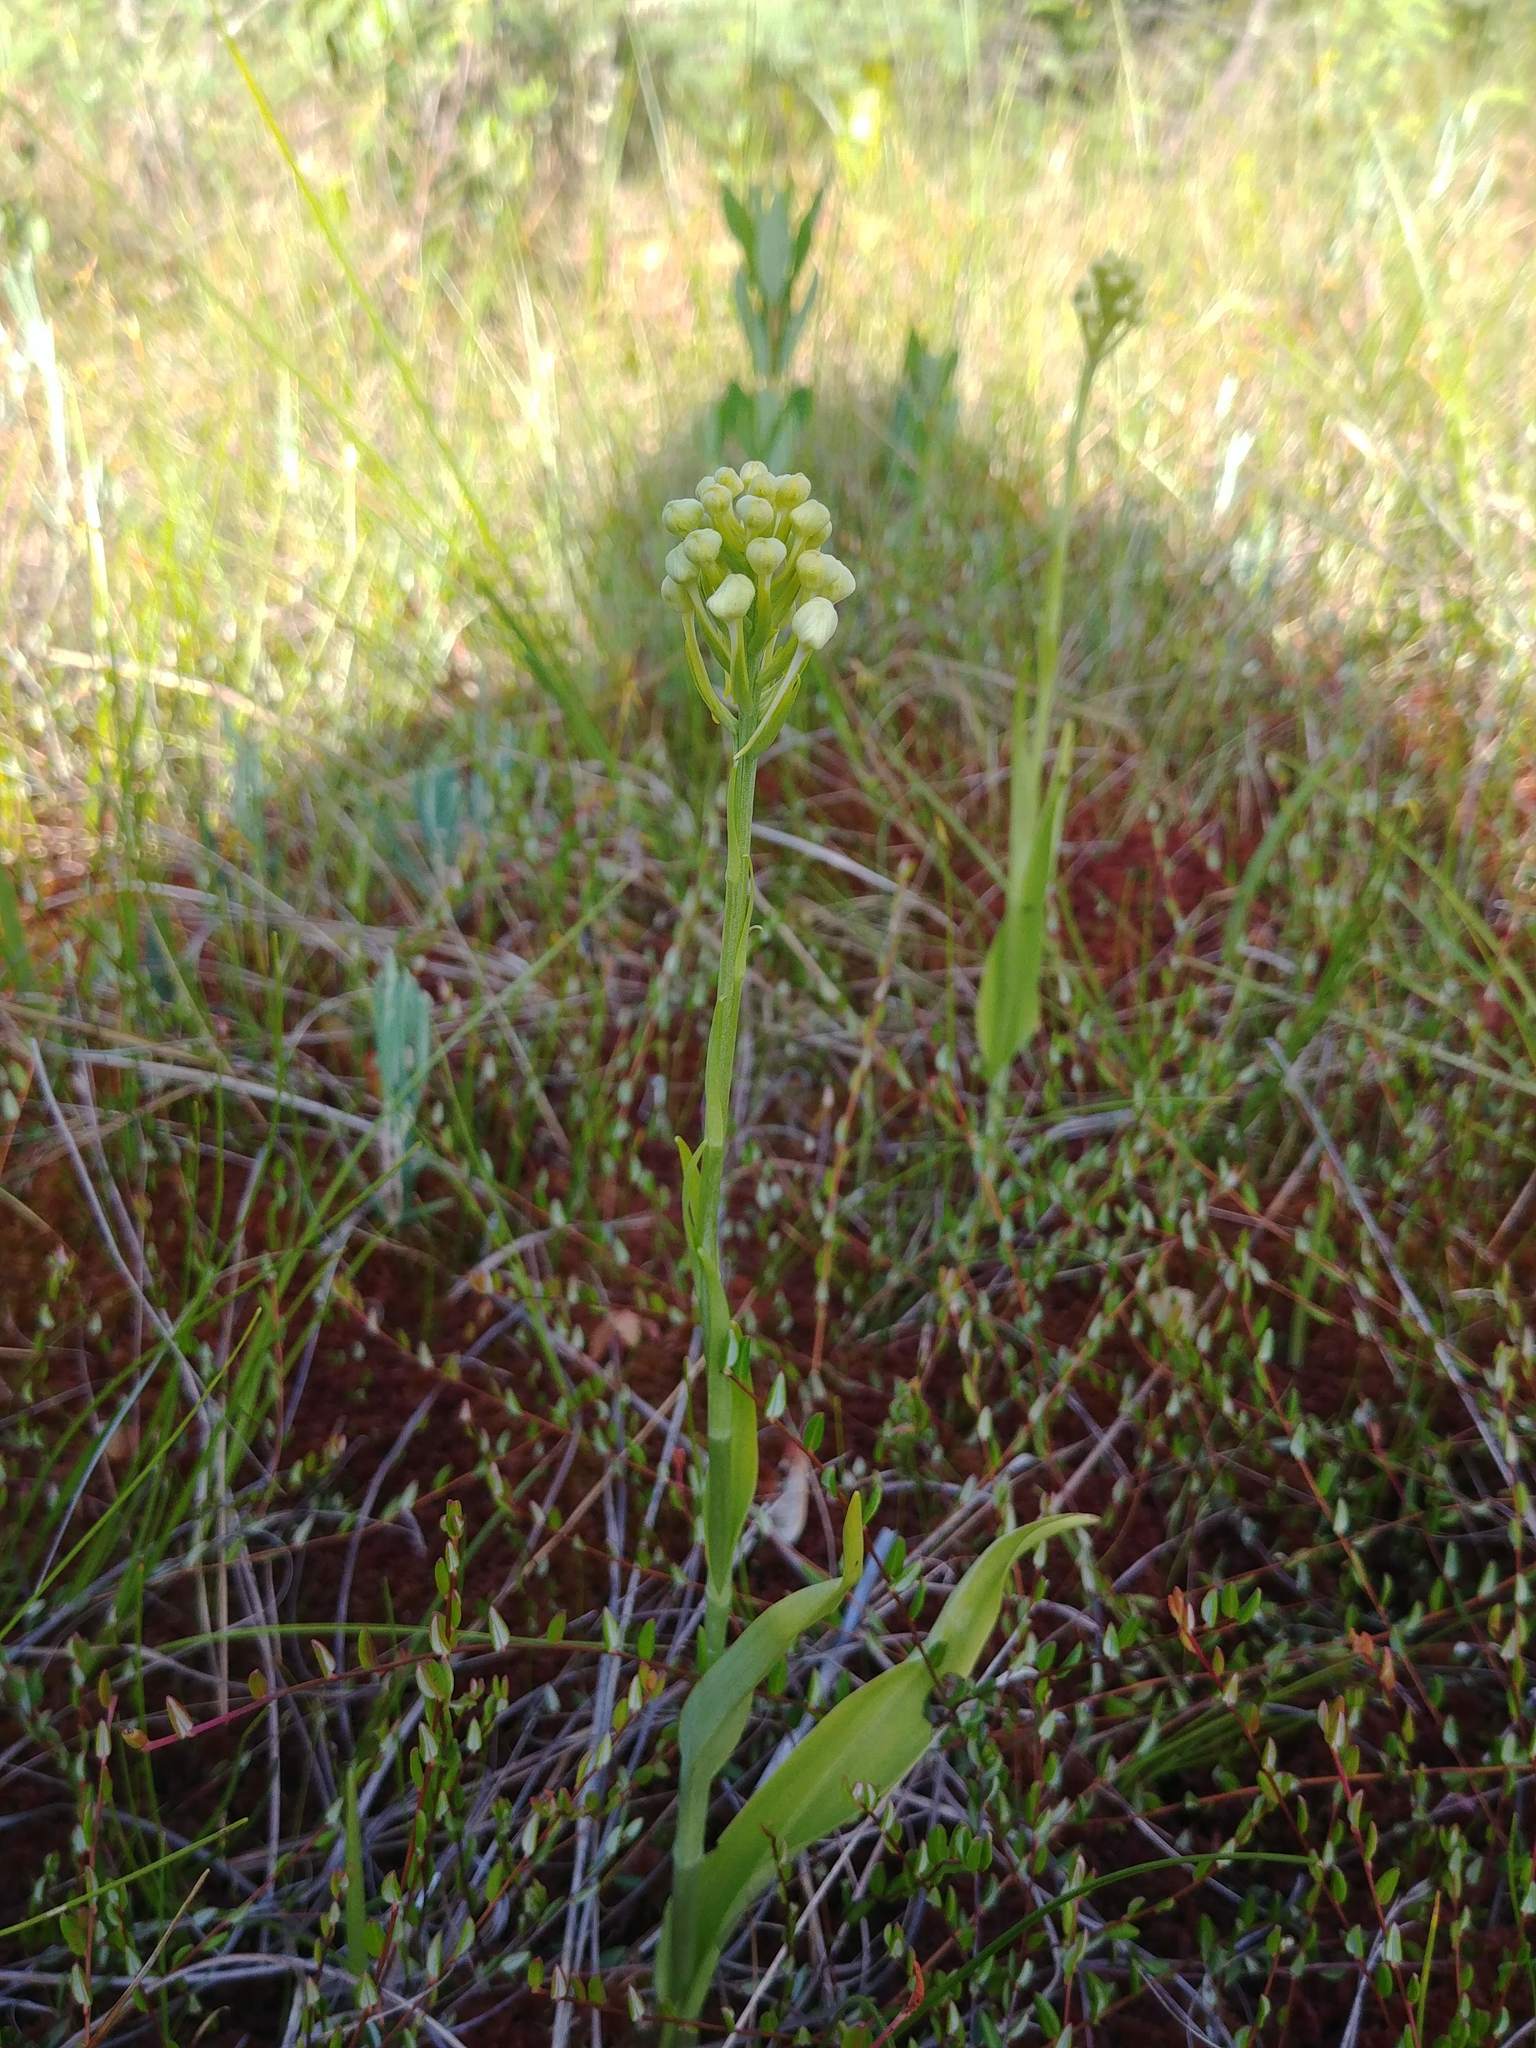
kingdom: Plantae
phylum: Tracheophyta
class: Liliopsida
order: Asparagales
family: Orchidaceae
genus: Platanthera
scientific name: Platanthera blephariglottis
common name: White fringed orchid
